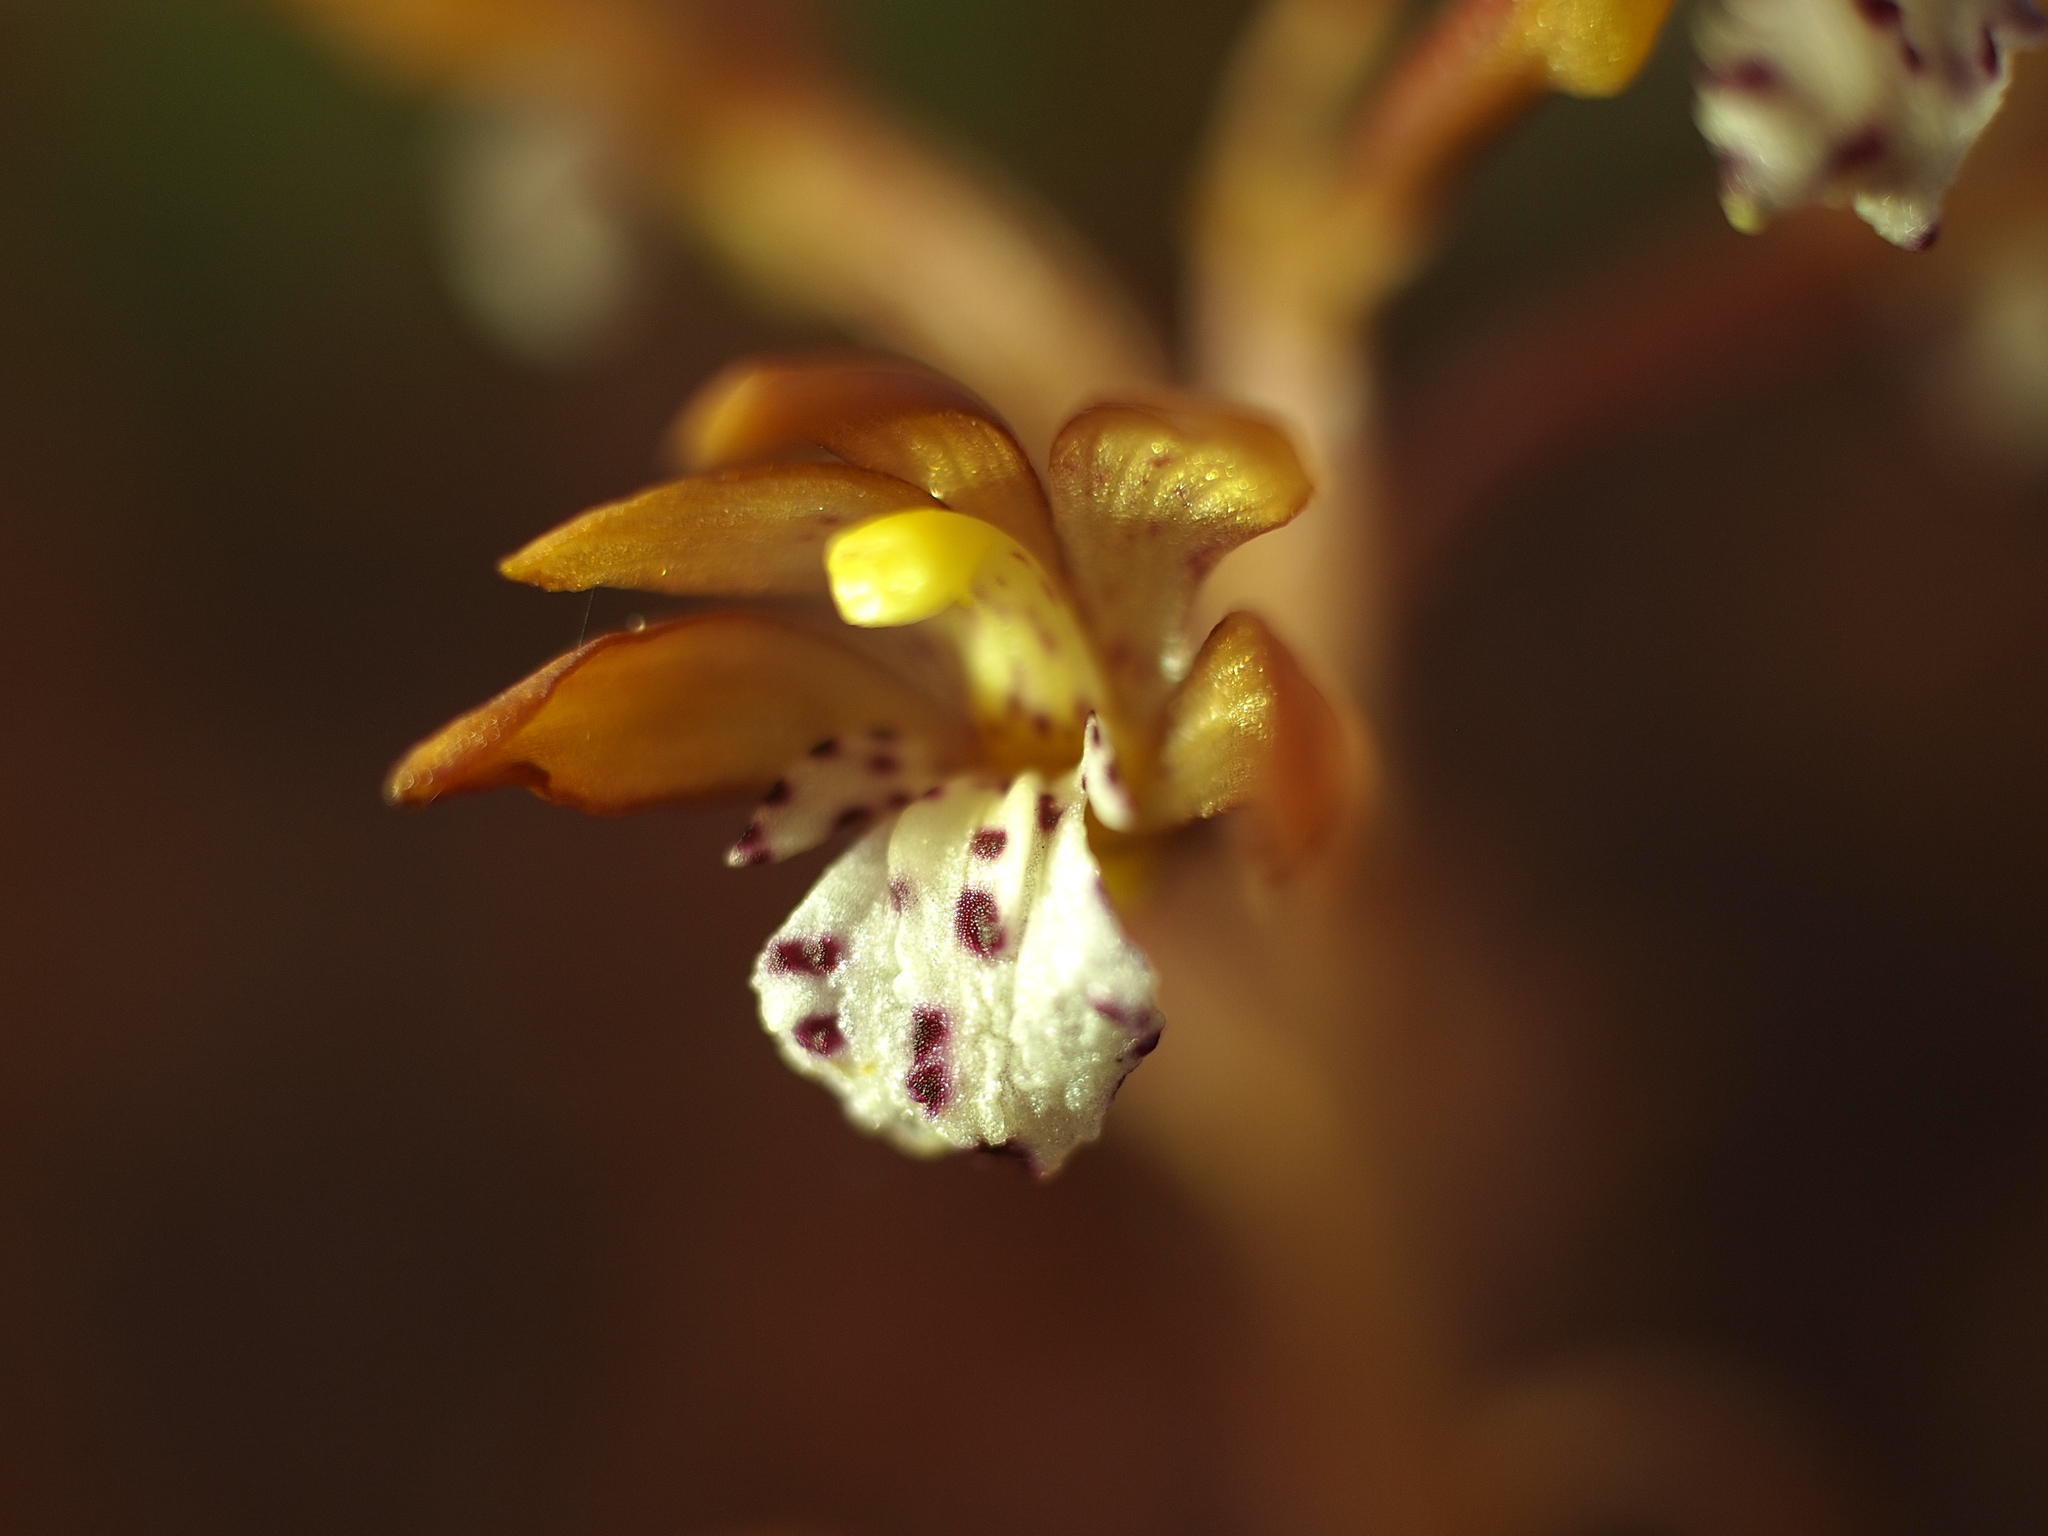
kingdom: Plantae
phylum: Tracheophyta
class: Liliopsida
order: Asparagales
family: Orchidaceae
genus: Corallorhiza
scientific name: Corallorhiza maculata
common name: Spotted coralroot
